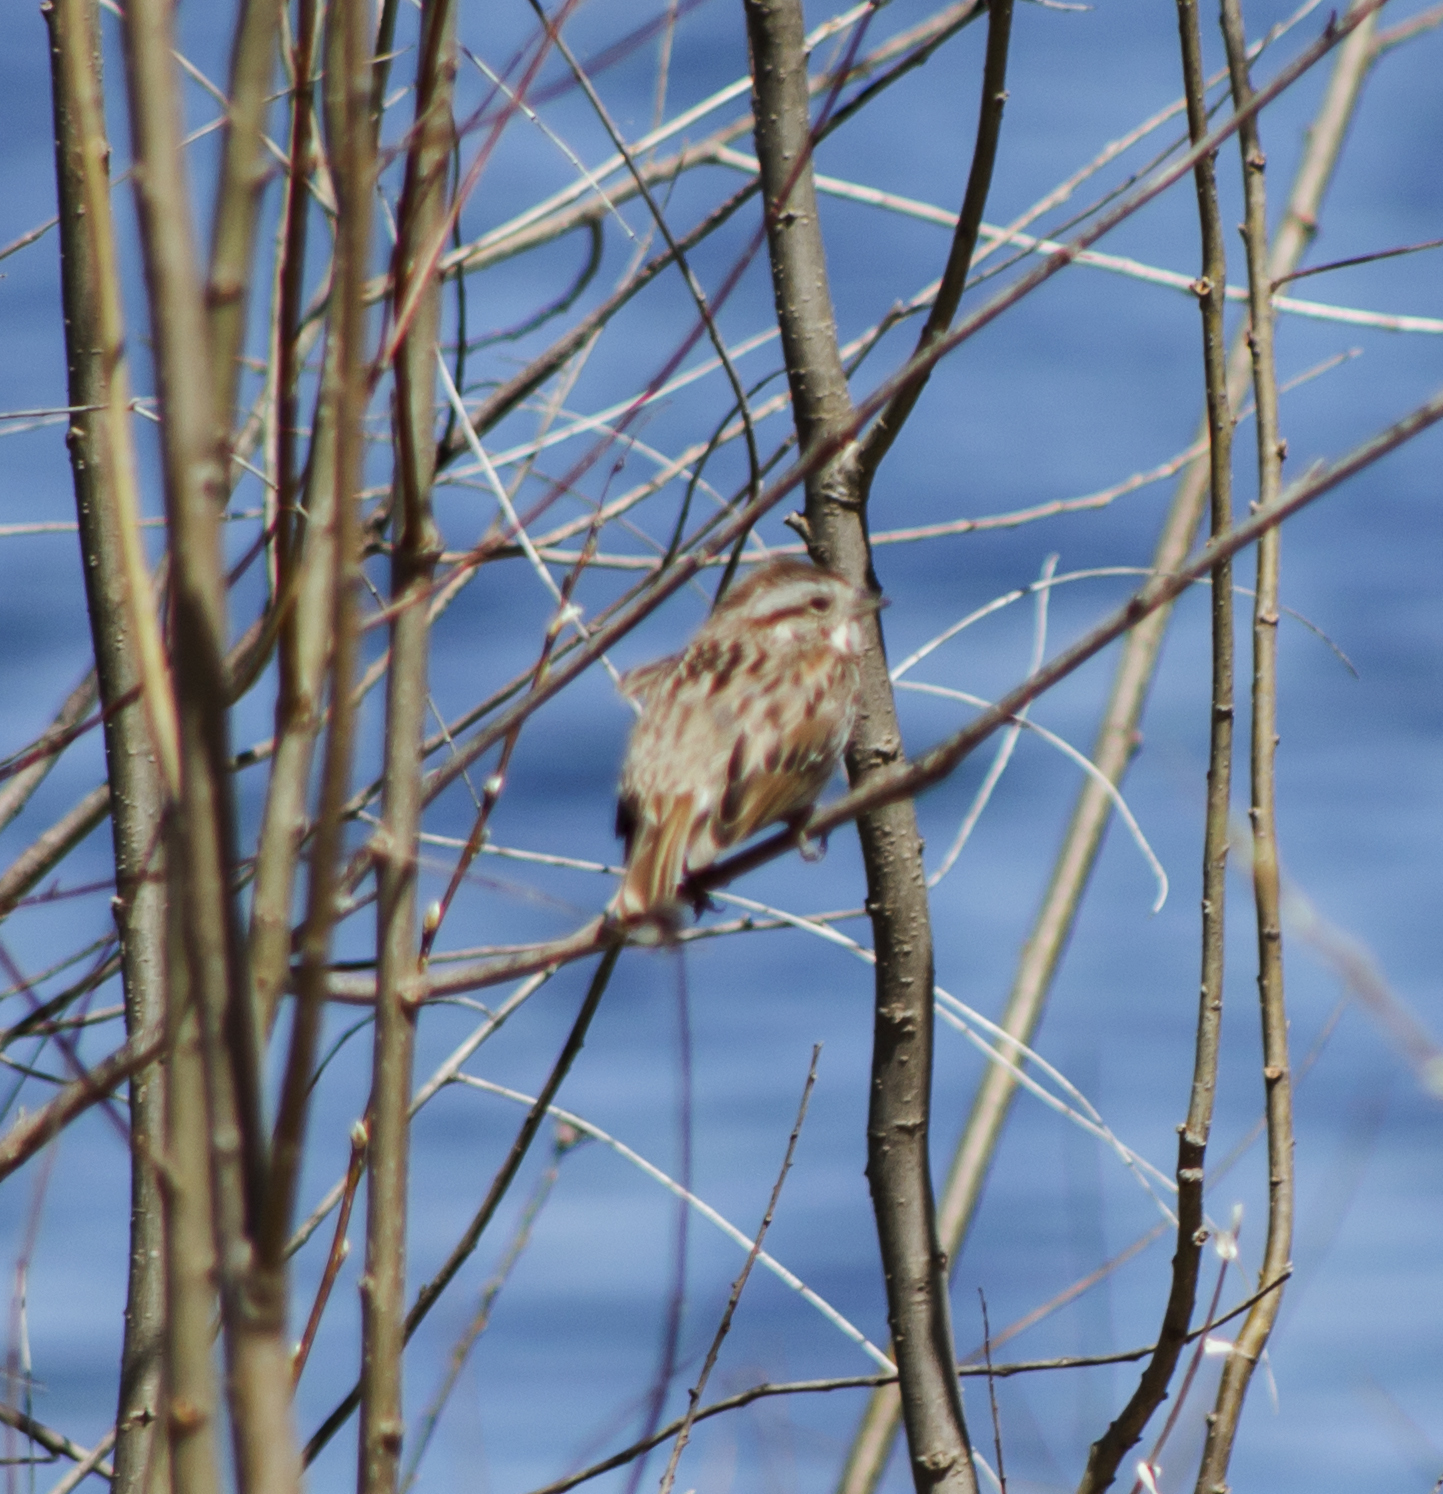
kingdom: Animalia
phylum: Chordata
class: Aves
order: Passeriformes
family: Passerellidae
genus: Melospiza
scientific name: Melospiza melodia
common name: Song sparrow
